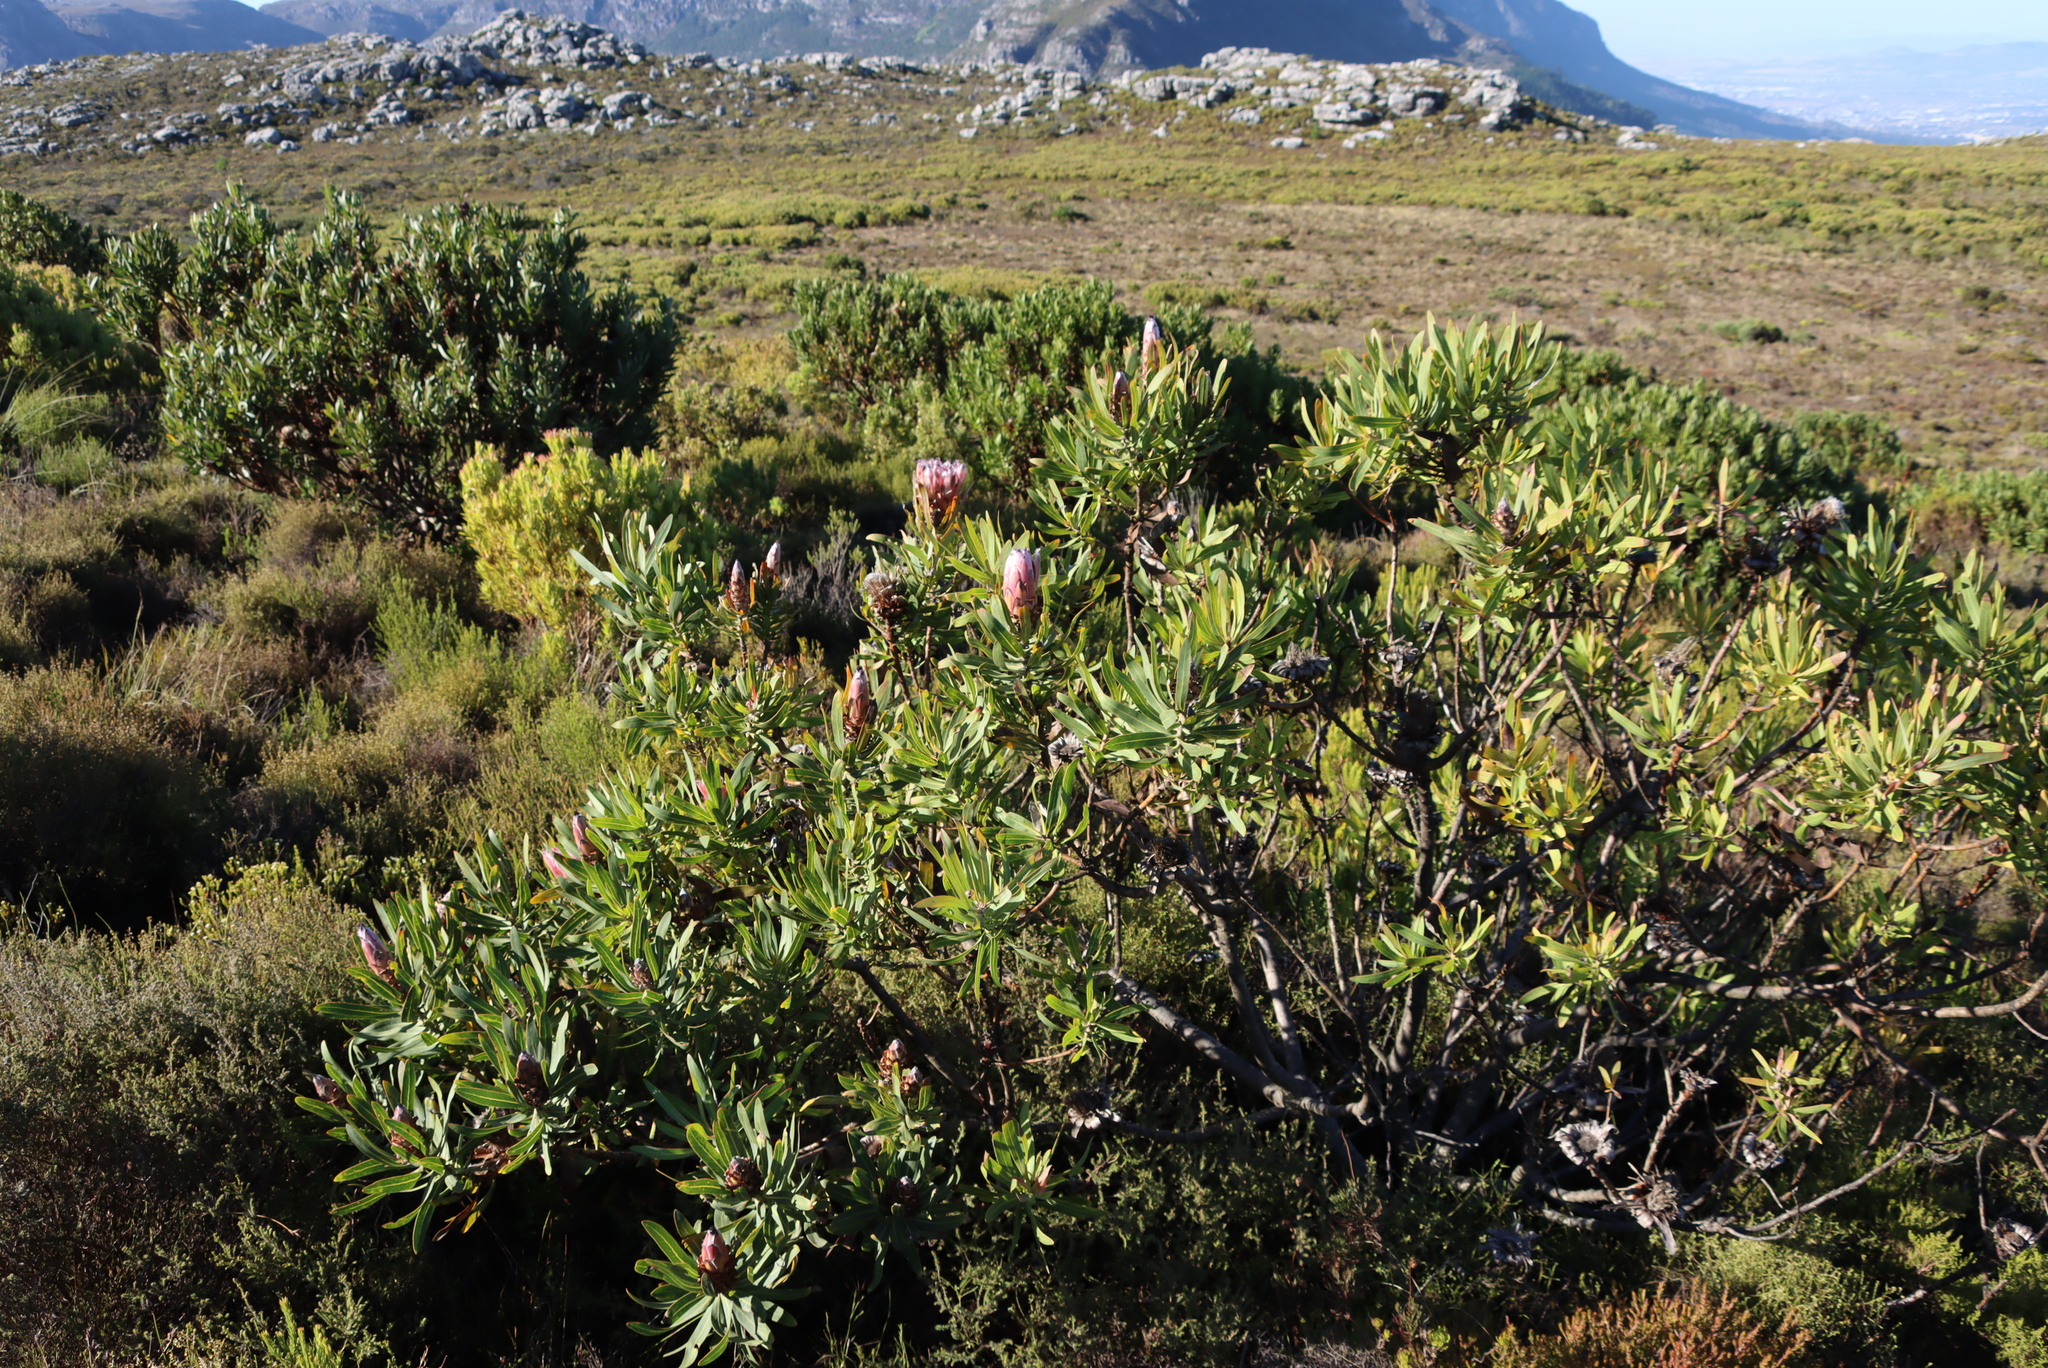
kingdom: Plantae
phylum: Tracheophyta
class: Magnoliopsida
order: Proteales
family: Proteaceae
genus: Protea
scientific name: Protea neriifolia
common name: Blue sugarbush
